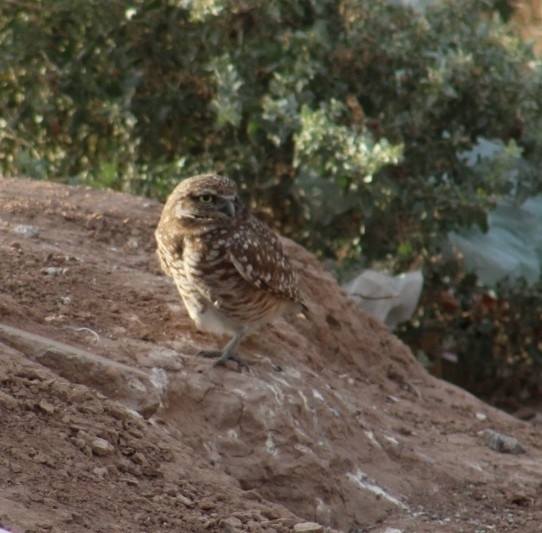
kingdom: Animalia
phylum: Chordata
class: Aves
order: Strigiformes
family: Strigidae
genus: Athene
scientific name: Athene cunicularia
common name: Burrowing owl
